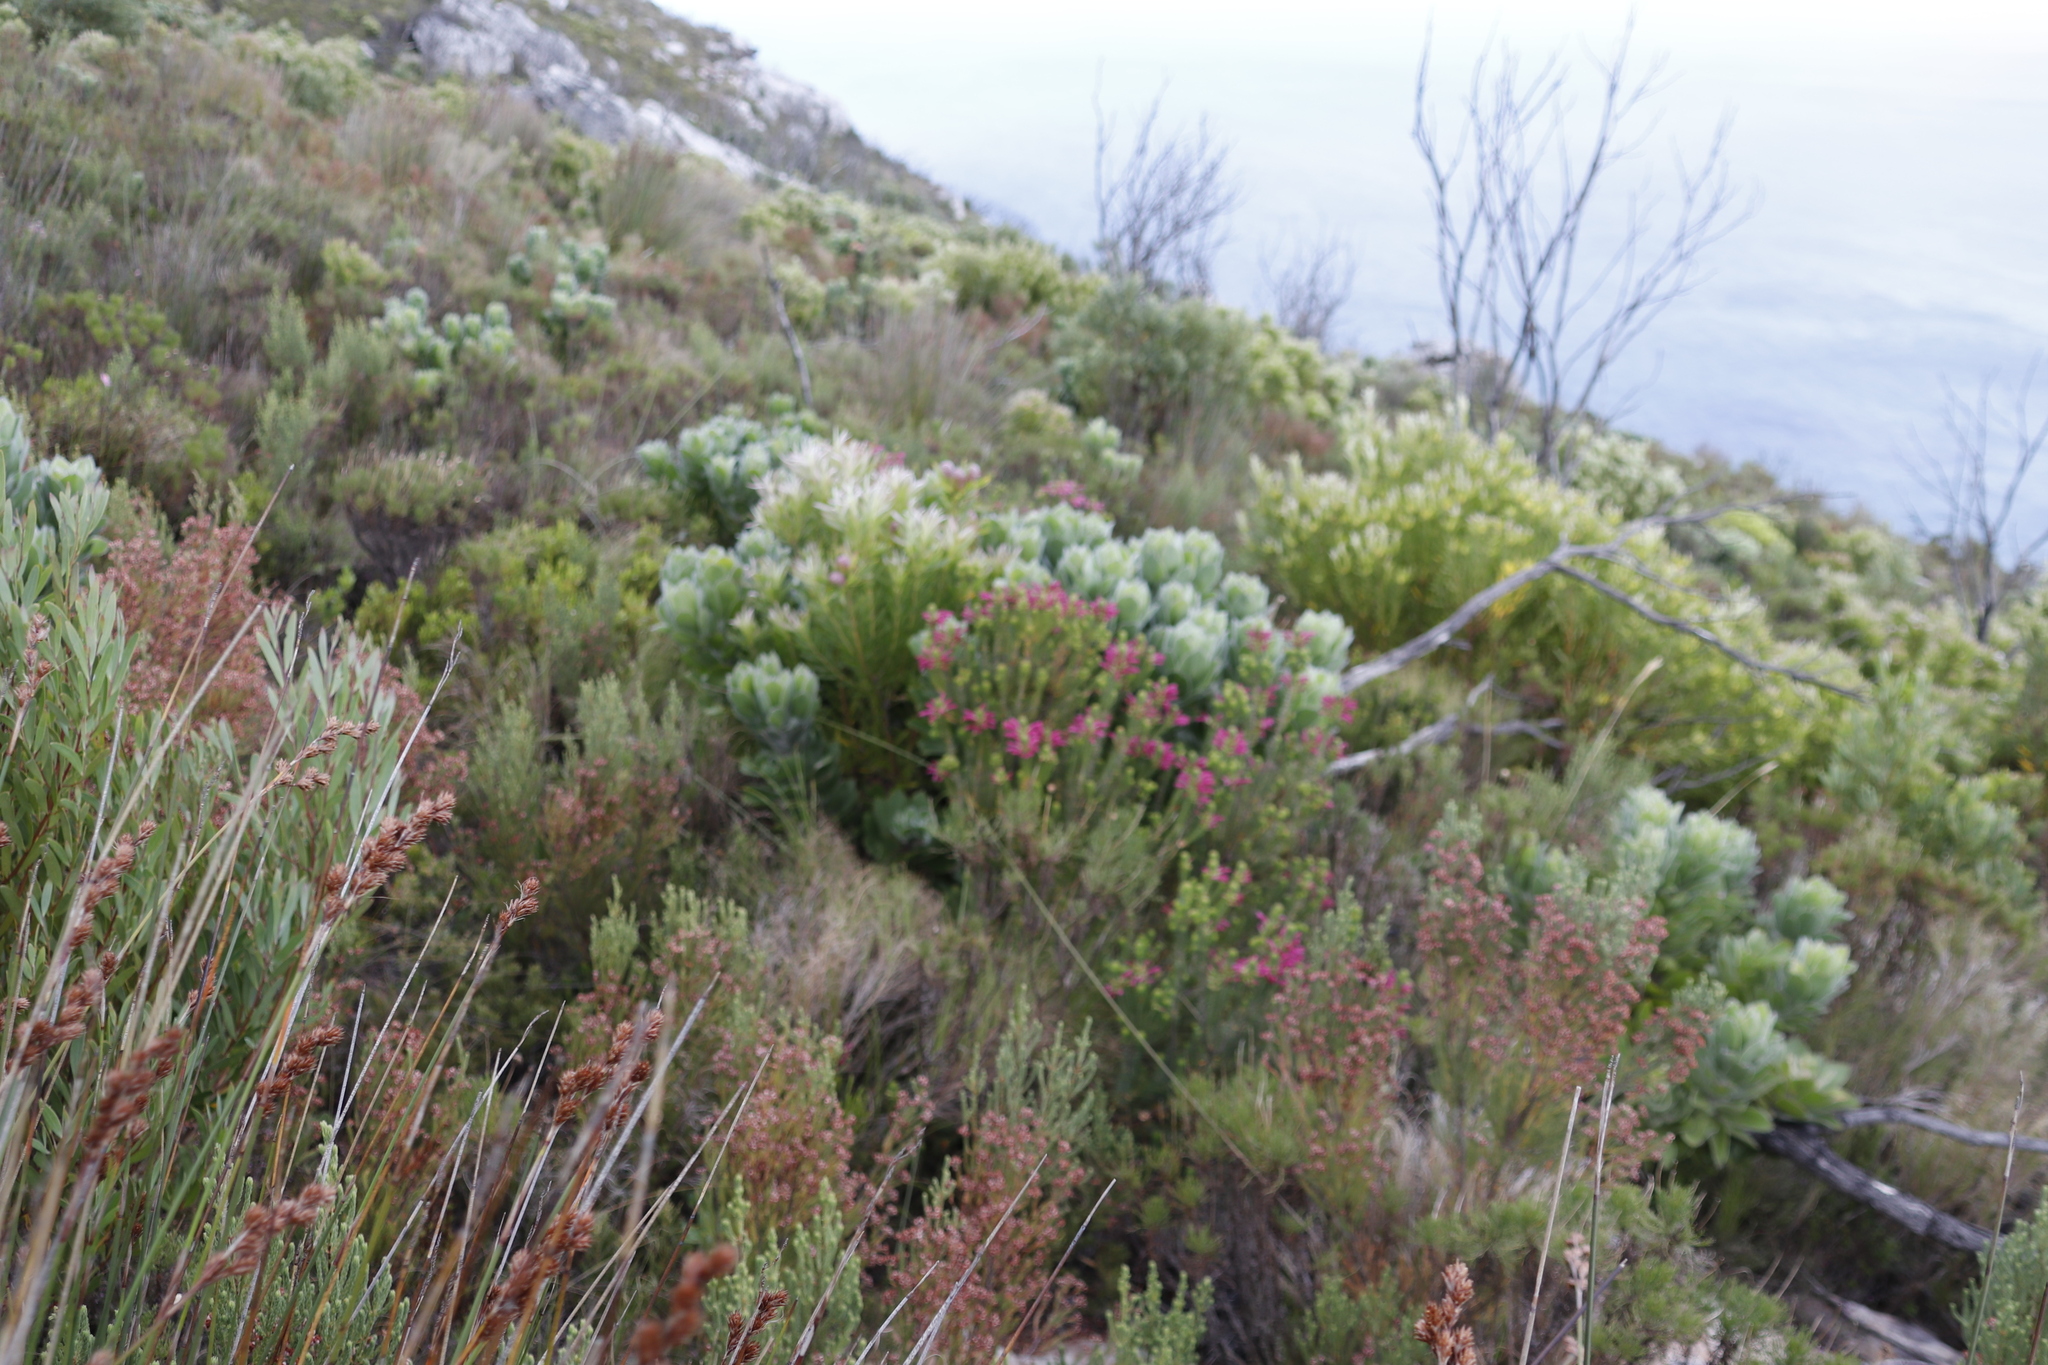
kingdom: Plantae
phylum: Tracheophyta
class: Magnoliopsida
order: Ericales
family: Ericaceae
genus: Erica
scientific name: Erica abietina
